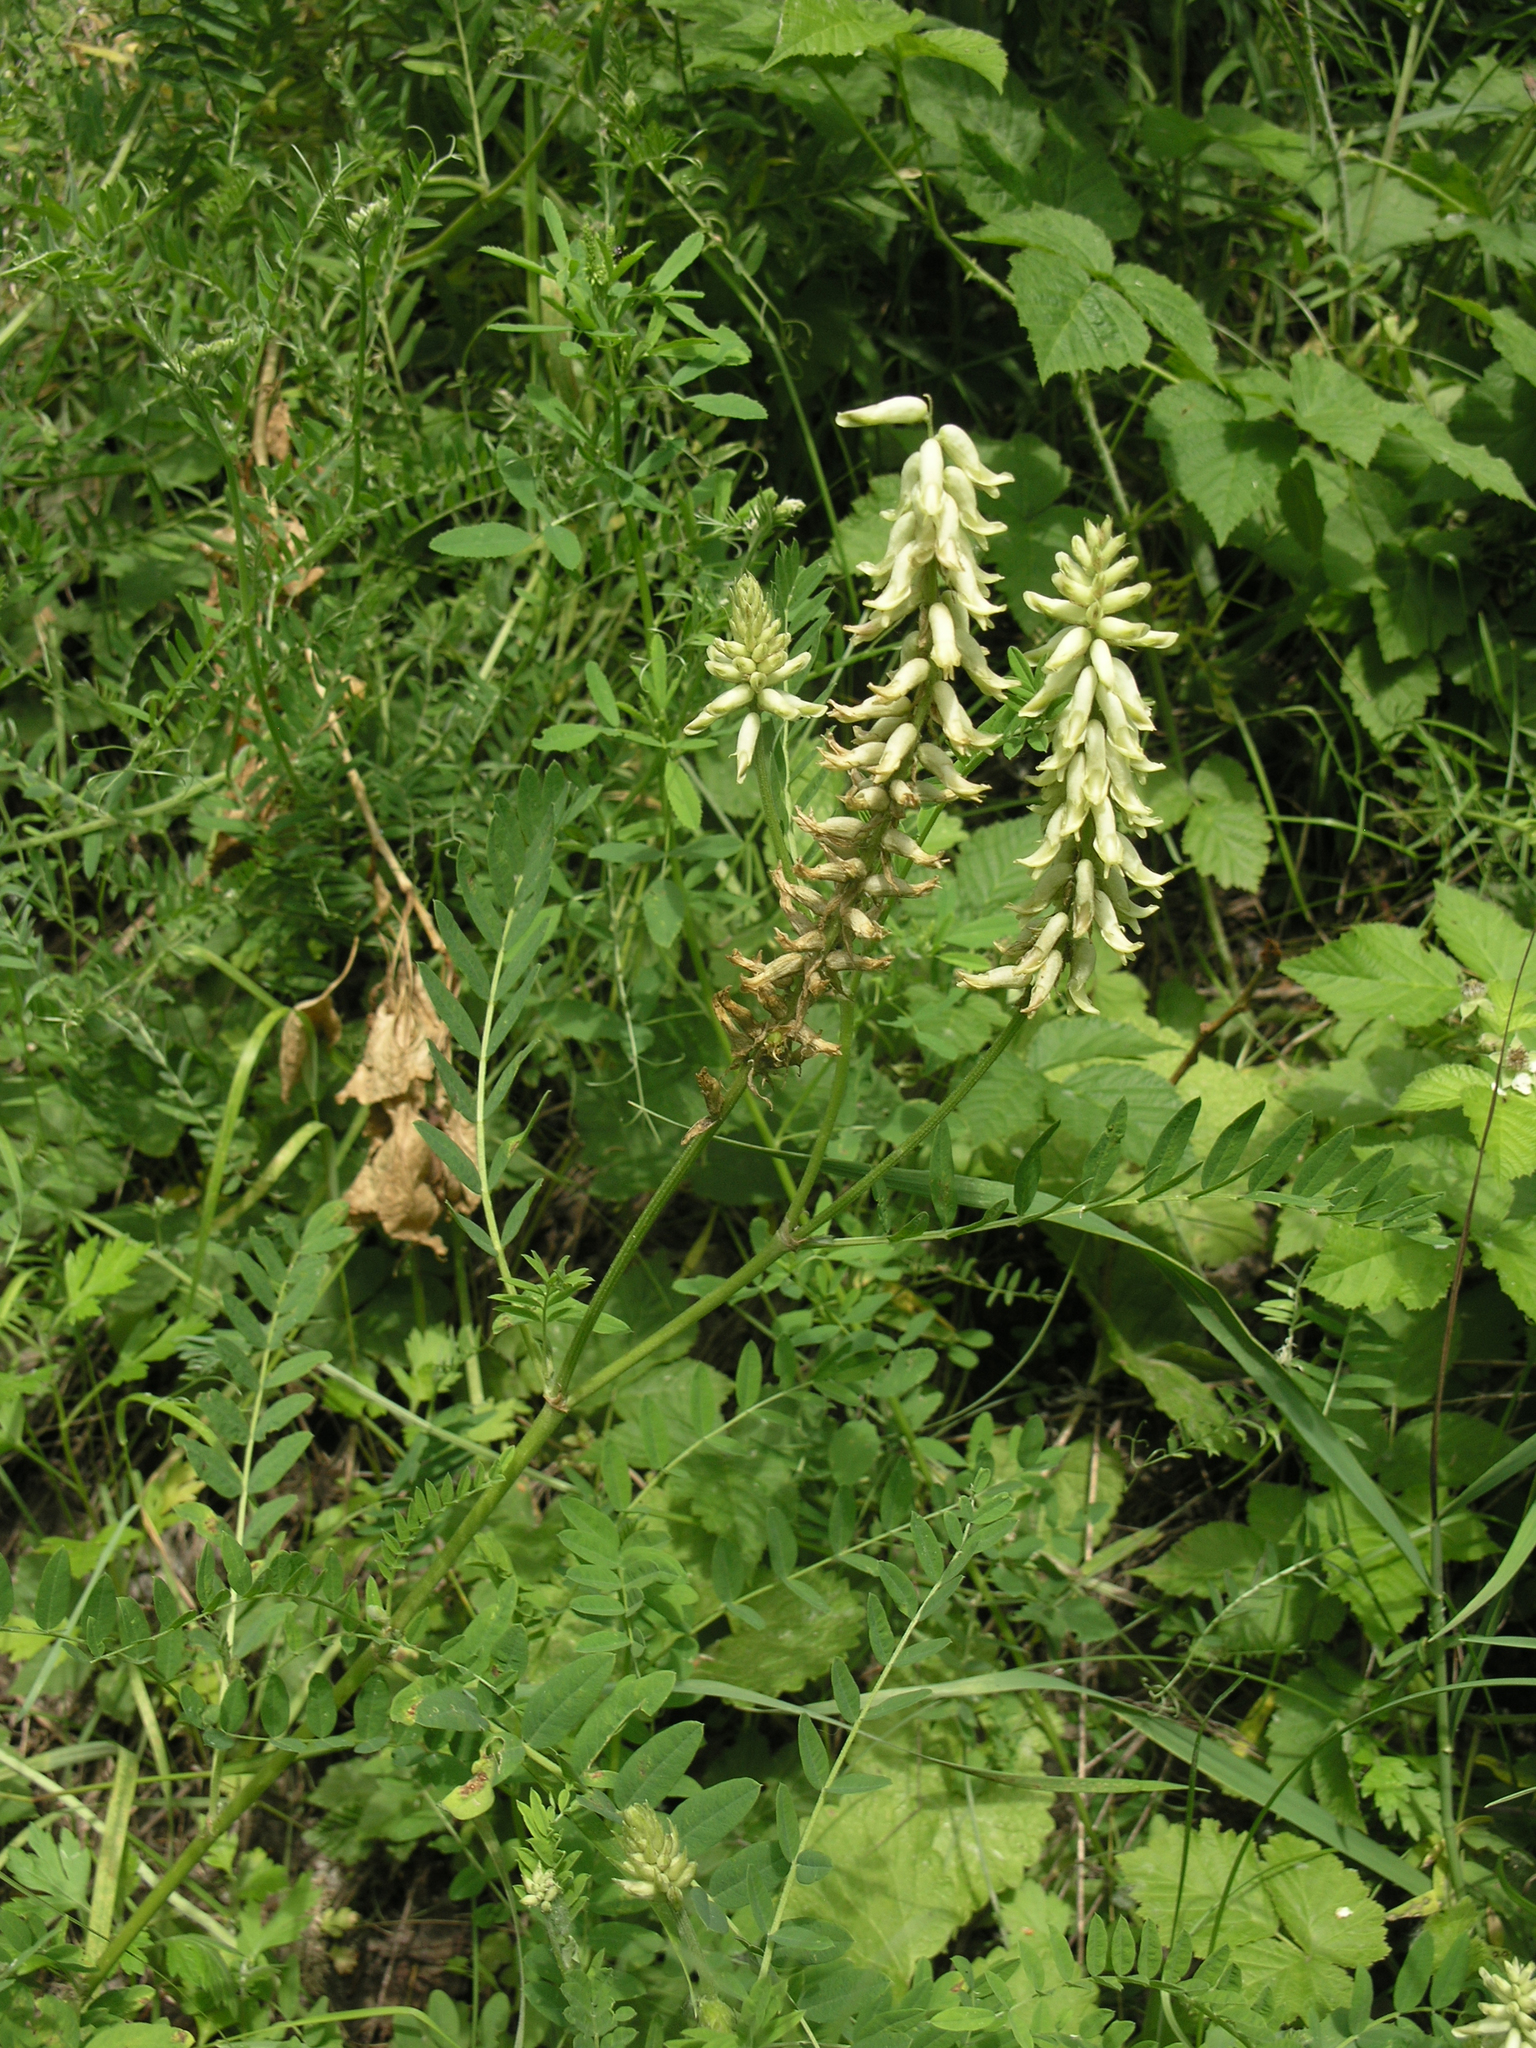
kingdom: Plantae
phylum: Tracheophyta
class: Magnoliopsida
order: Fabales
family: Fabaceae
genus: Astragalus
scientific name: Astragalus uliginosus
